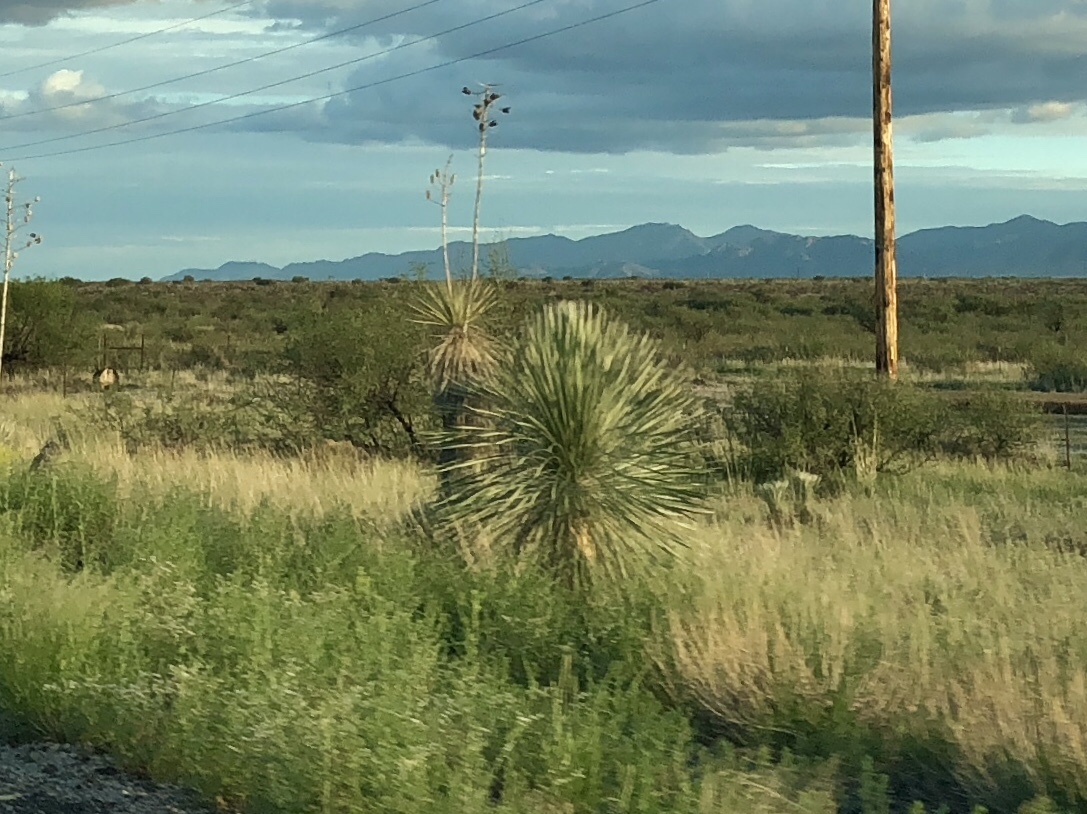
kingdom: Plantae
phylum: Tracheophyta
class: Liliopsida
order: Asparagales
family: Asparagaceae
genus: Yucca
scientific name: Yucca elata
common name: Palmella
